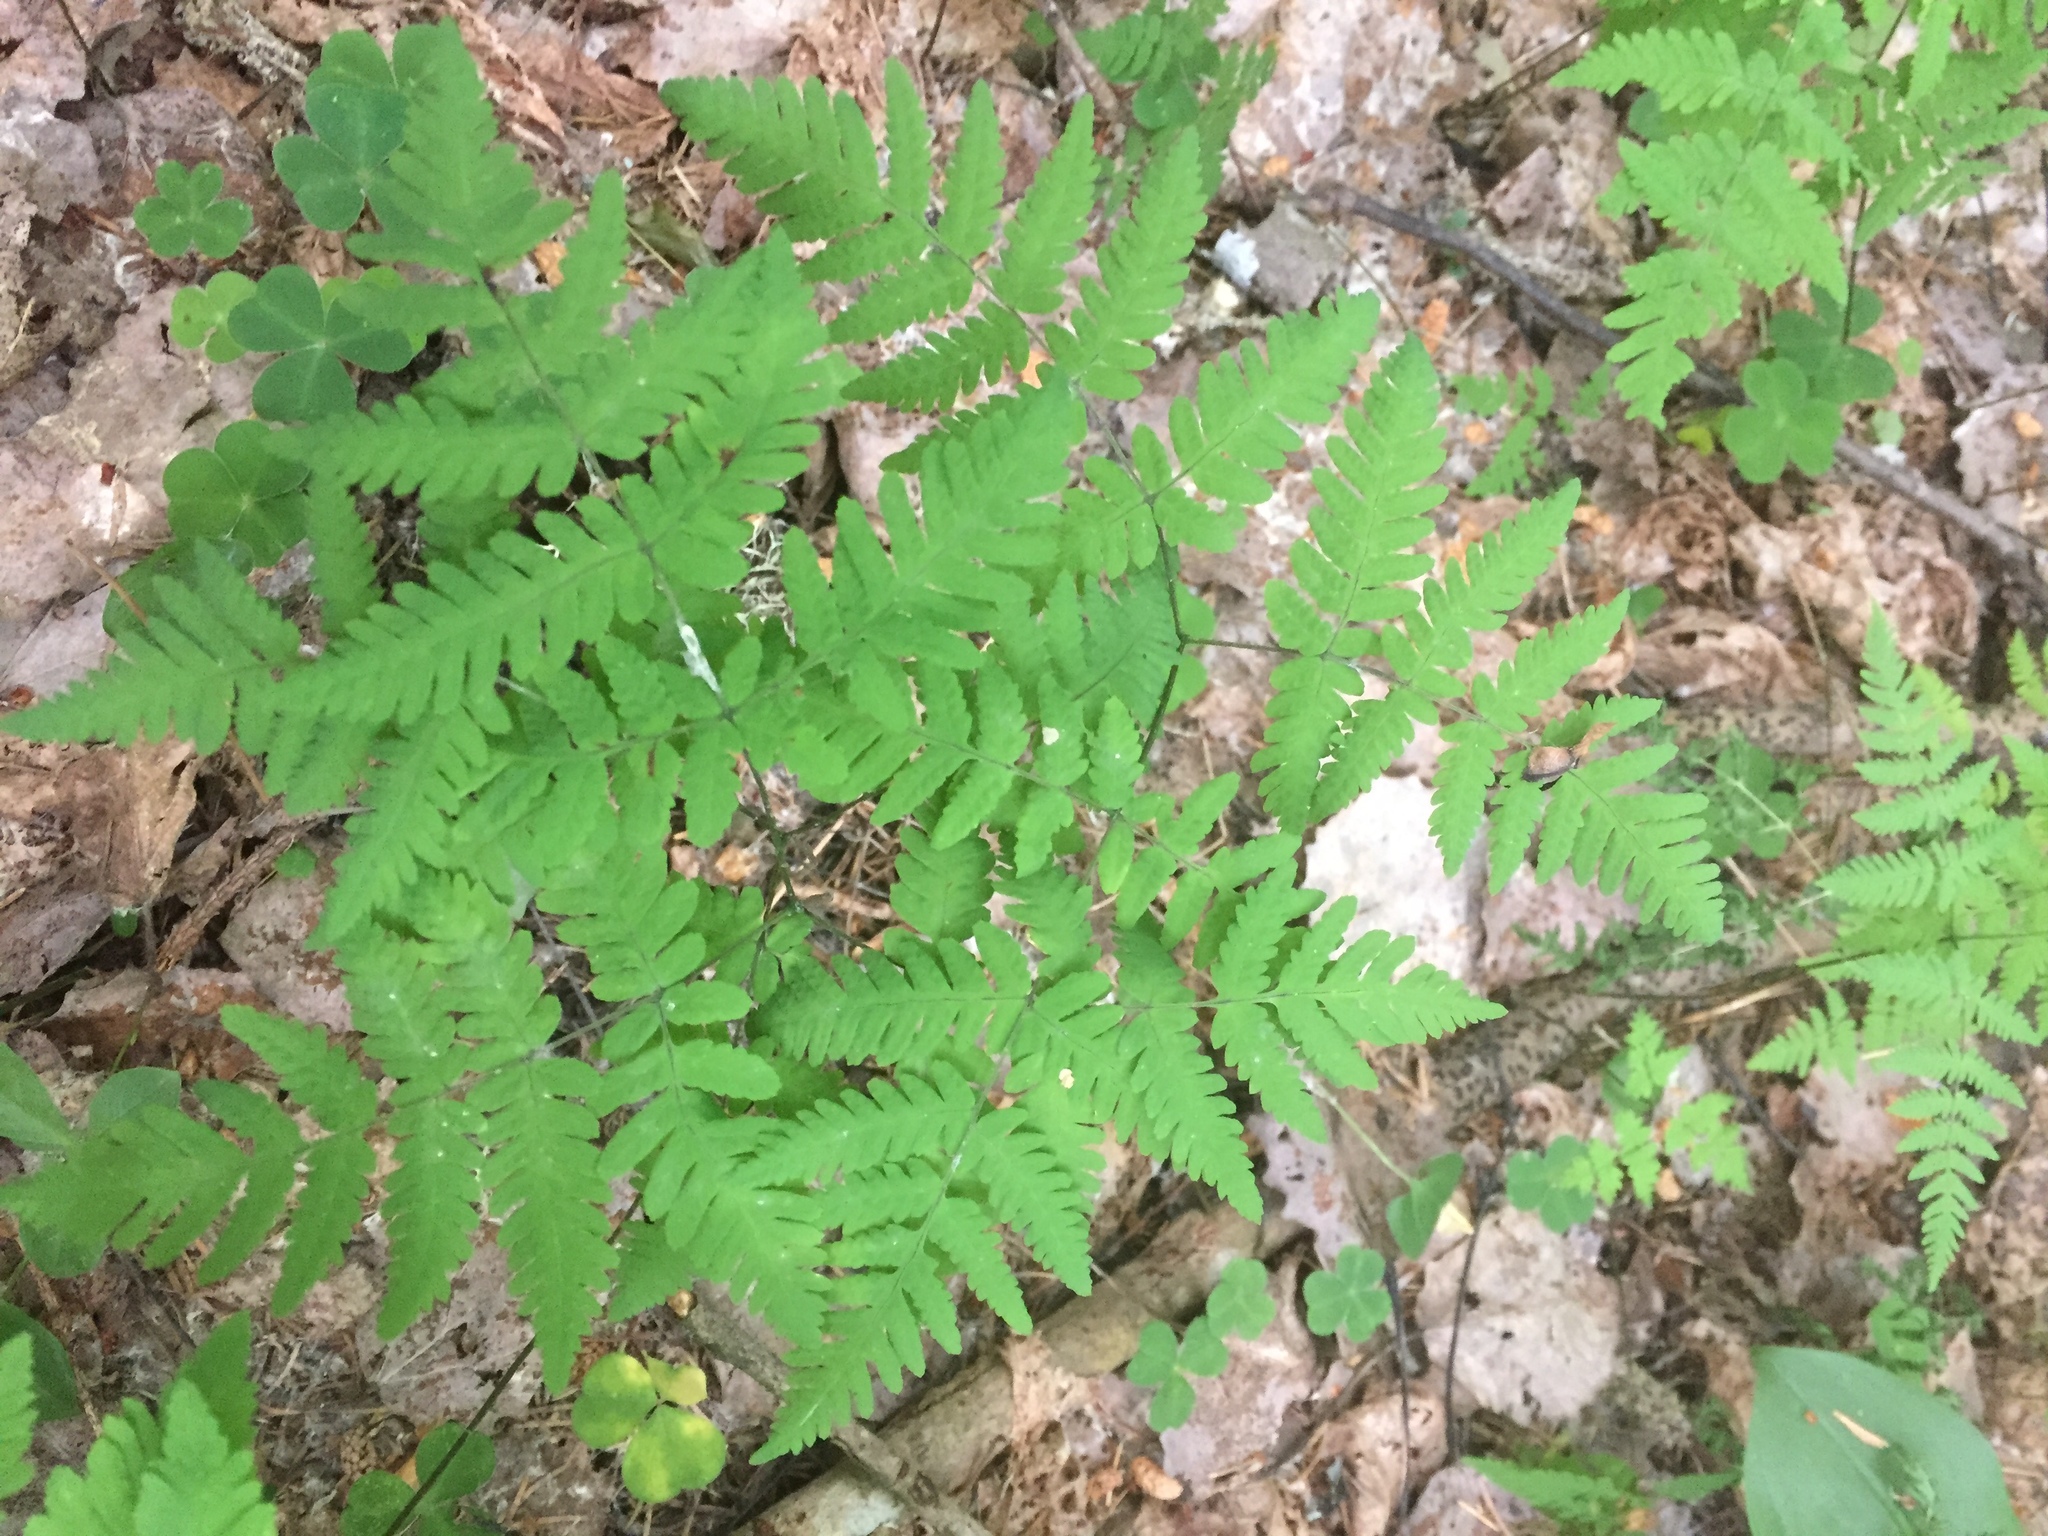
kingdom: Plantae
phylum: Tracheophyta
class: Polypodiopsida
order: Polypodiales
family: Cystopteridaceae
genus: Gymnocarpium
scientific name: Gymnocarpium dryopteris
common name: Oak fern
